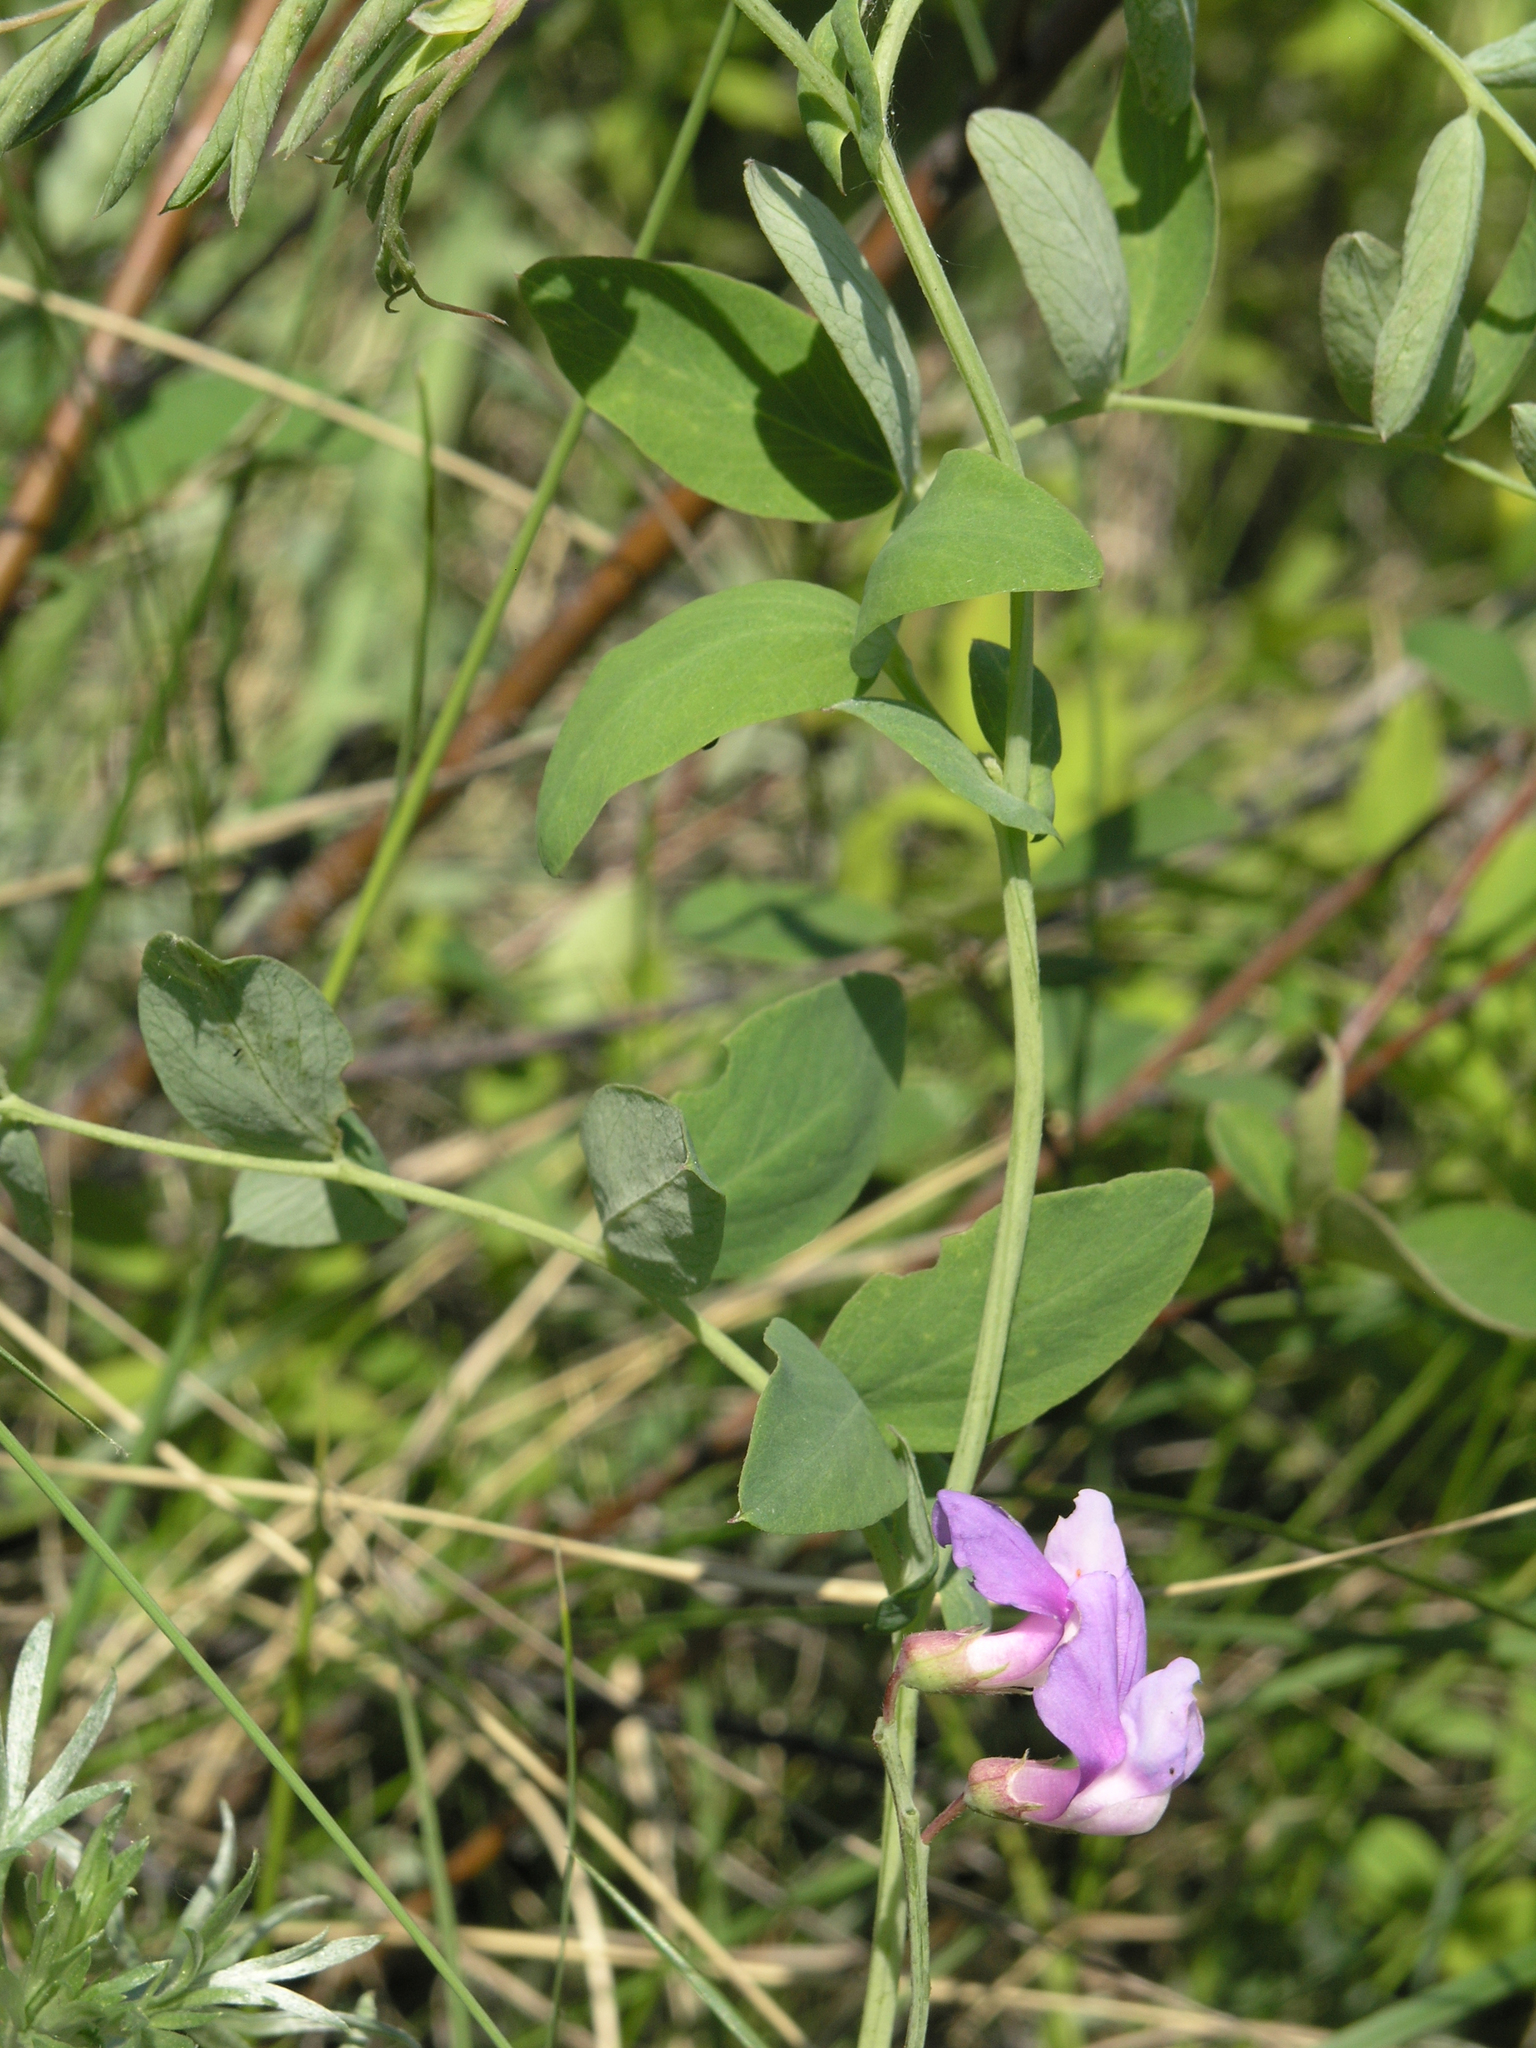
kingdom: Plantae
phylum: Tracheophyta
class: Magnoliopsida
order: Fabales
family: Fabaceae
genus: Lathyrus
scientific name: Lathyrus humilis
